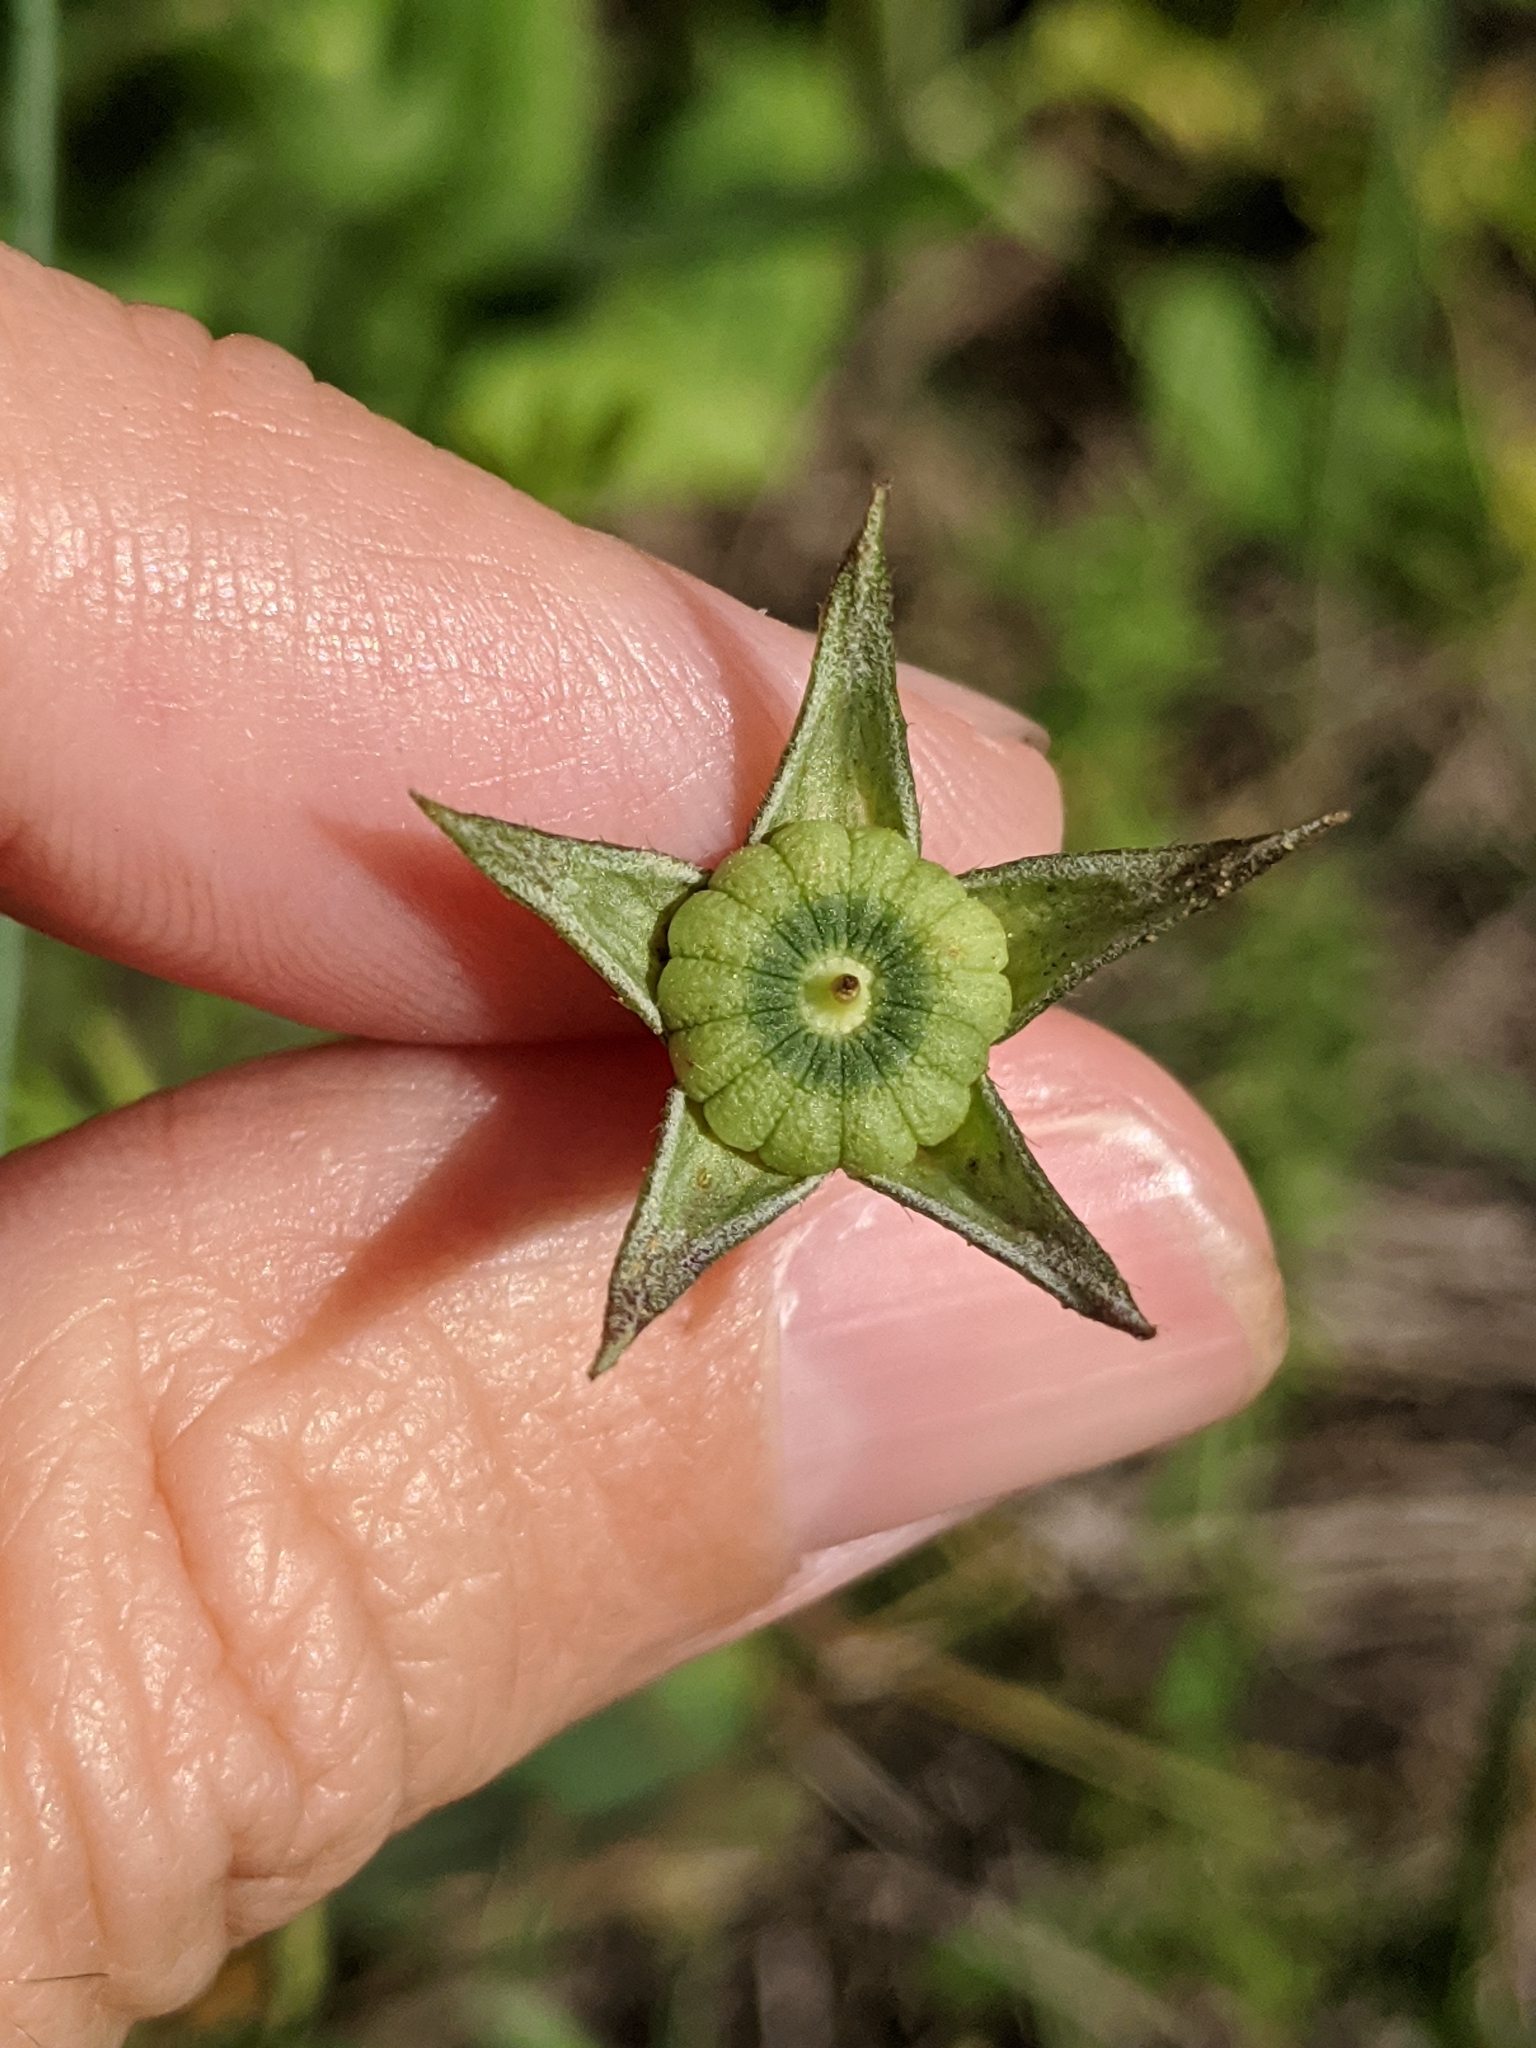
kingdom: Plantae
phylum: Tracheophyta
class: Magnoliopsida
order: Malvales
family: Malvaceae
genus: Callirhoe
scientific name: Callirhoe pedata
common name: Finger poppy-mallow
